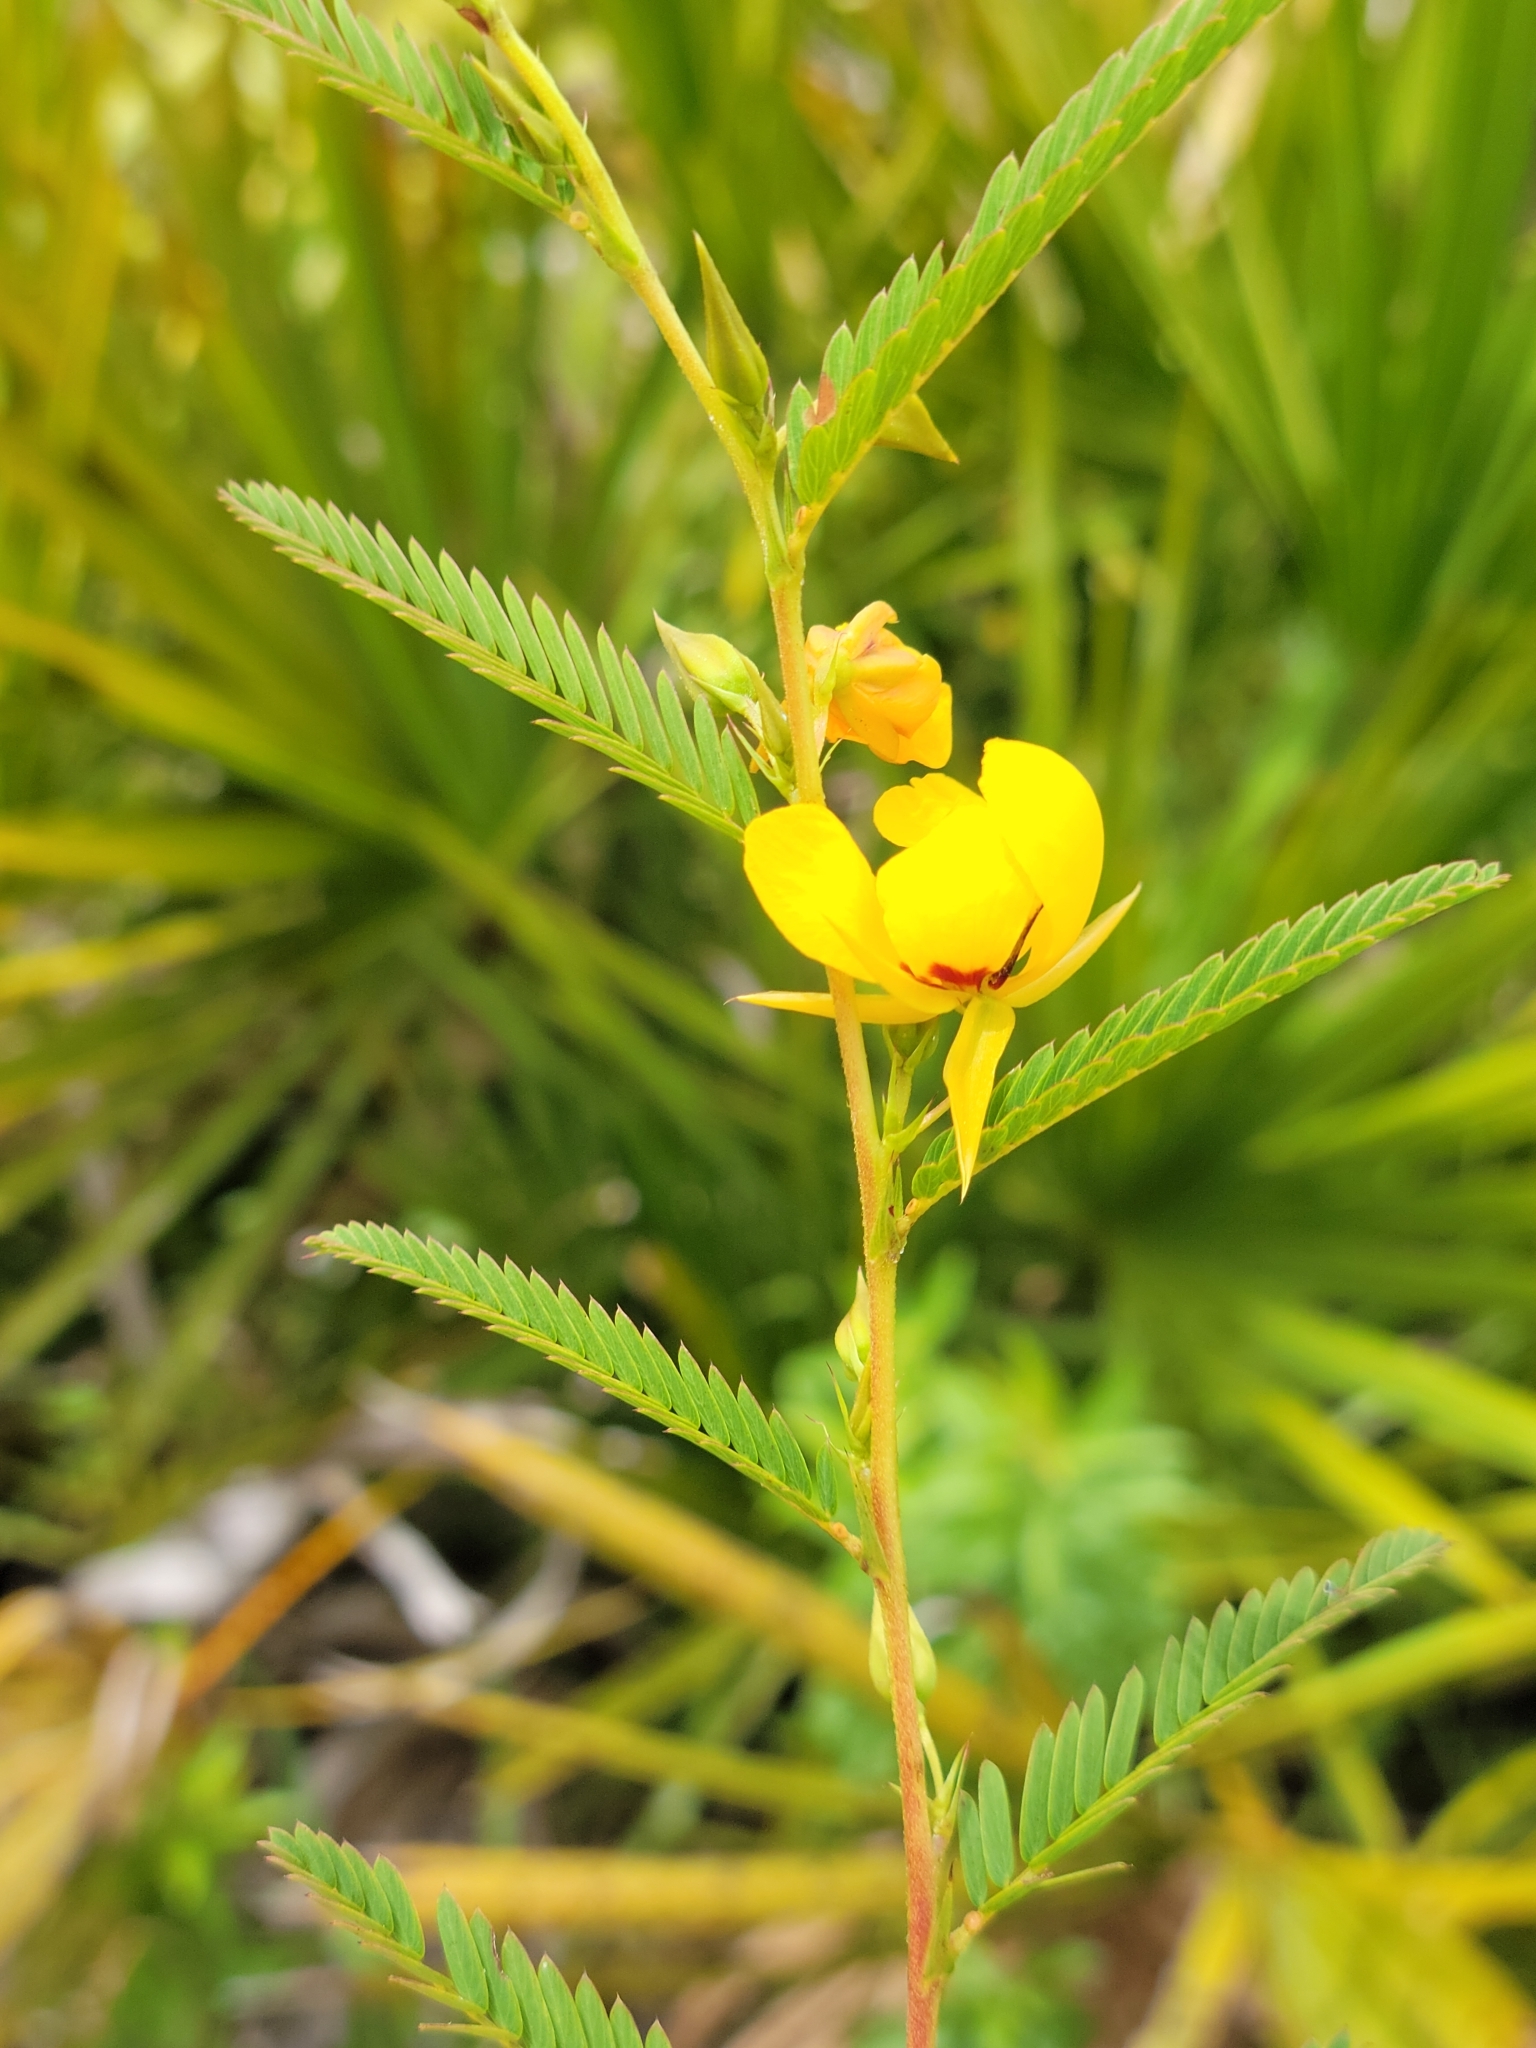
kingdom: Plantae
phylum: Tracheophyta
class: Magnoliopsida
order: Fabales
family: Fabaceae
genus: Chamaecrista
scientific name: Chamaecrista fasciculata
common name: Golden cassia
